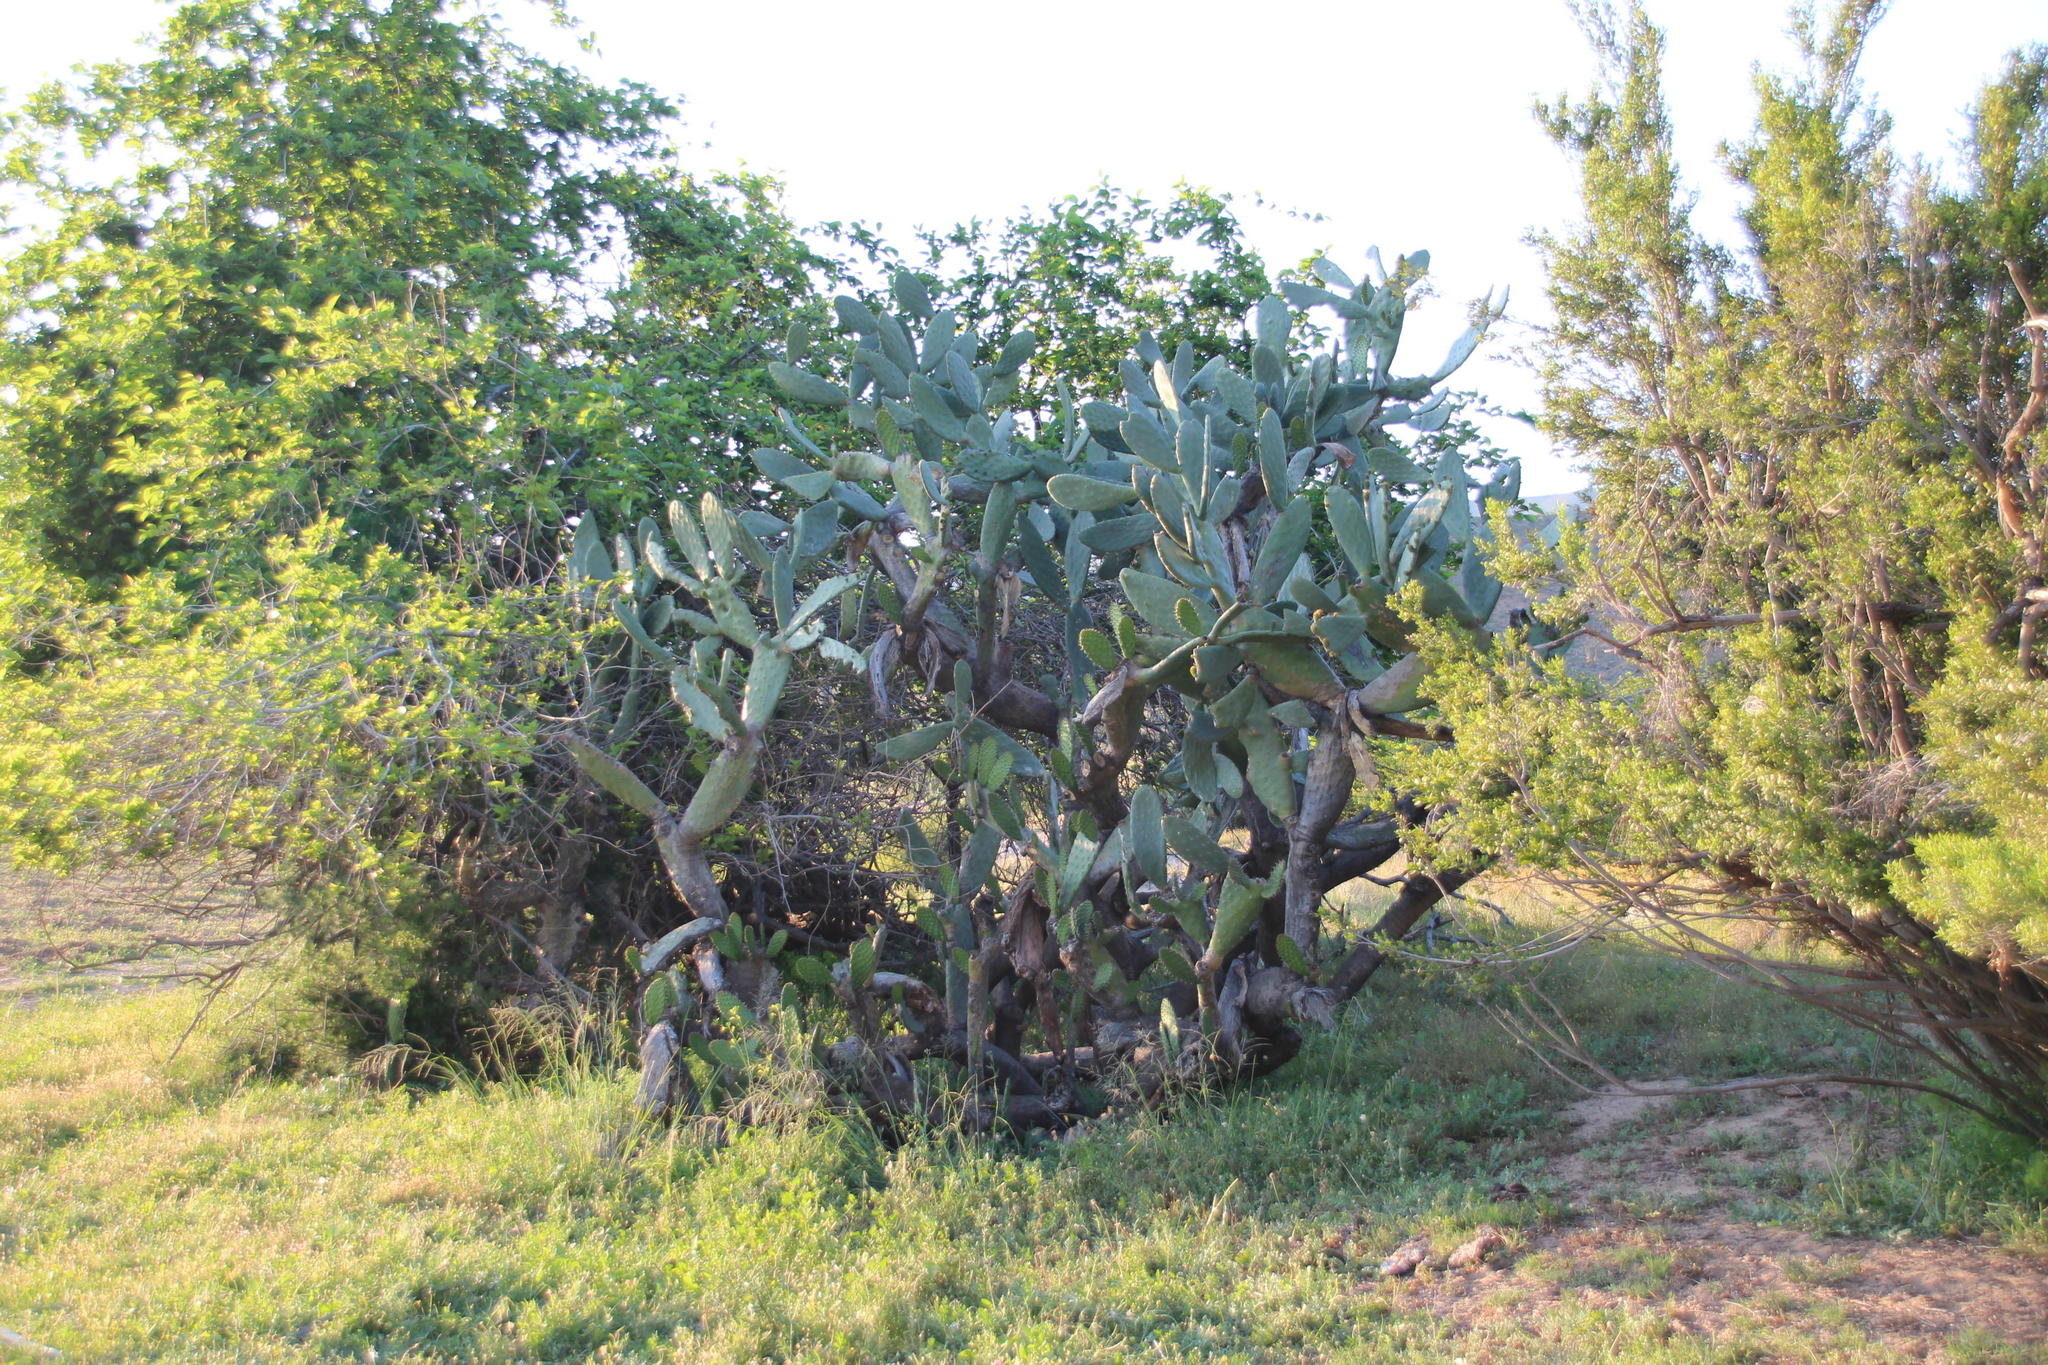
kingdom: Plantae
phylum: Tracheophyta
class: Magnoliopsida
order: Caryophyllales
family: Cactaceae
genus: Opuntia
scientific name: Opuntia ficus-indica
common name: Barbary fig
